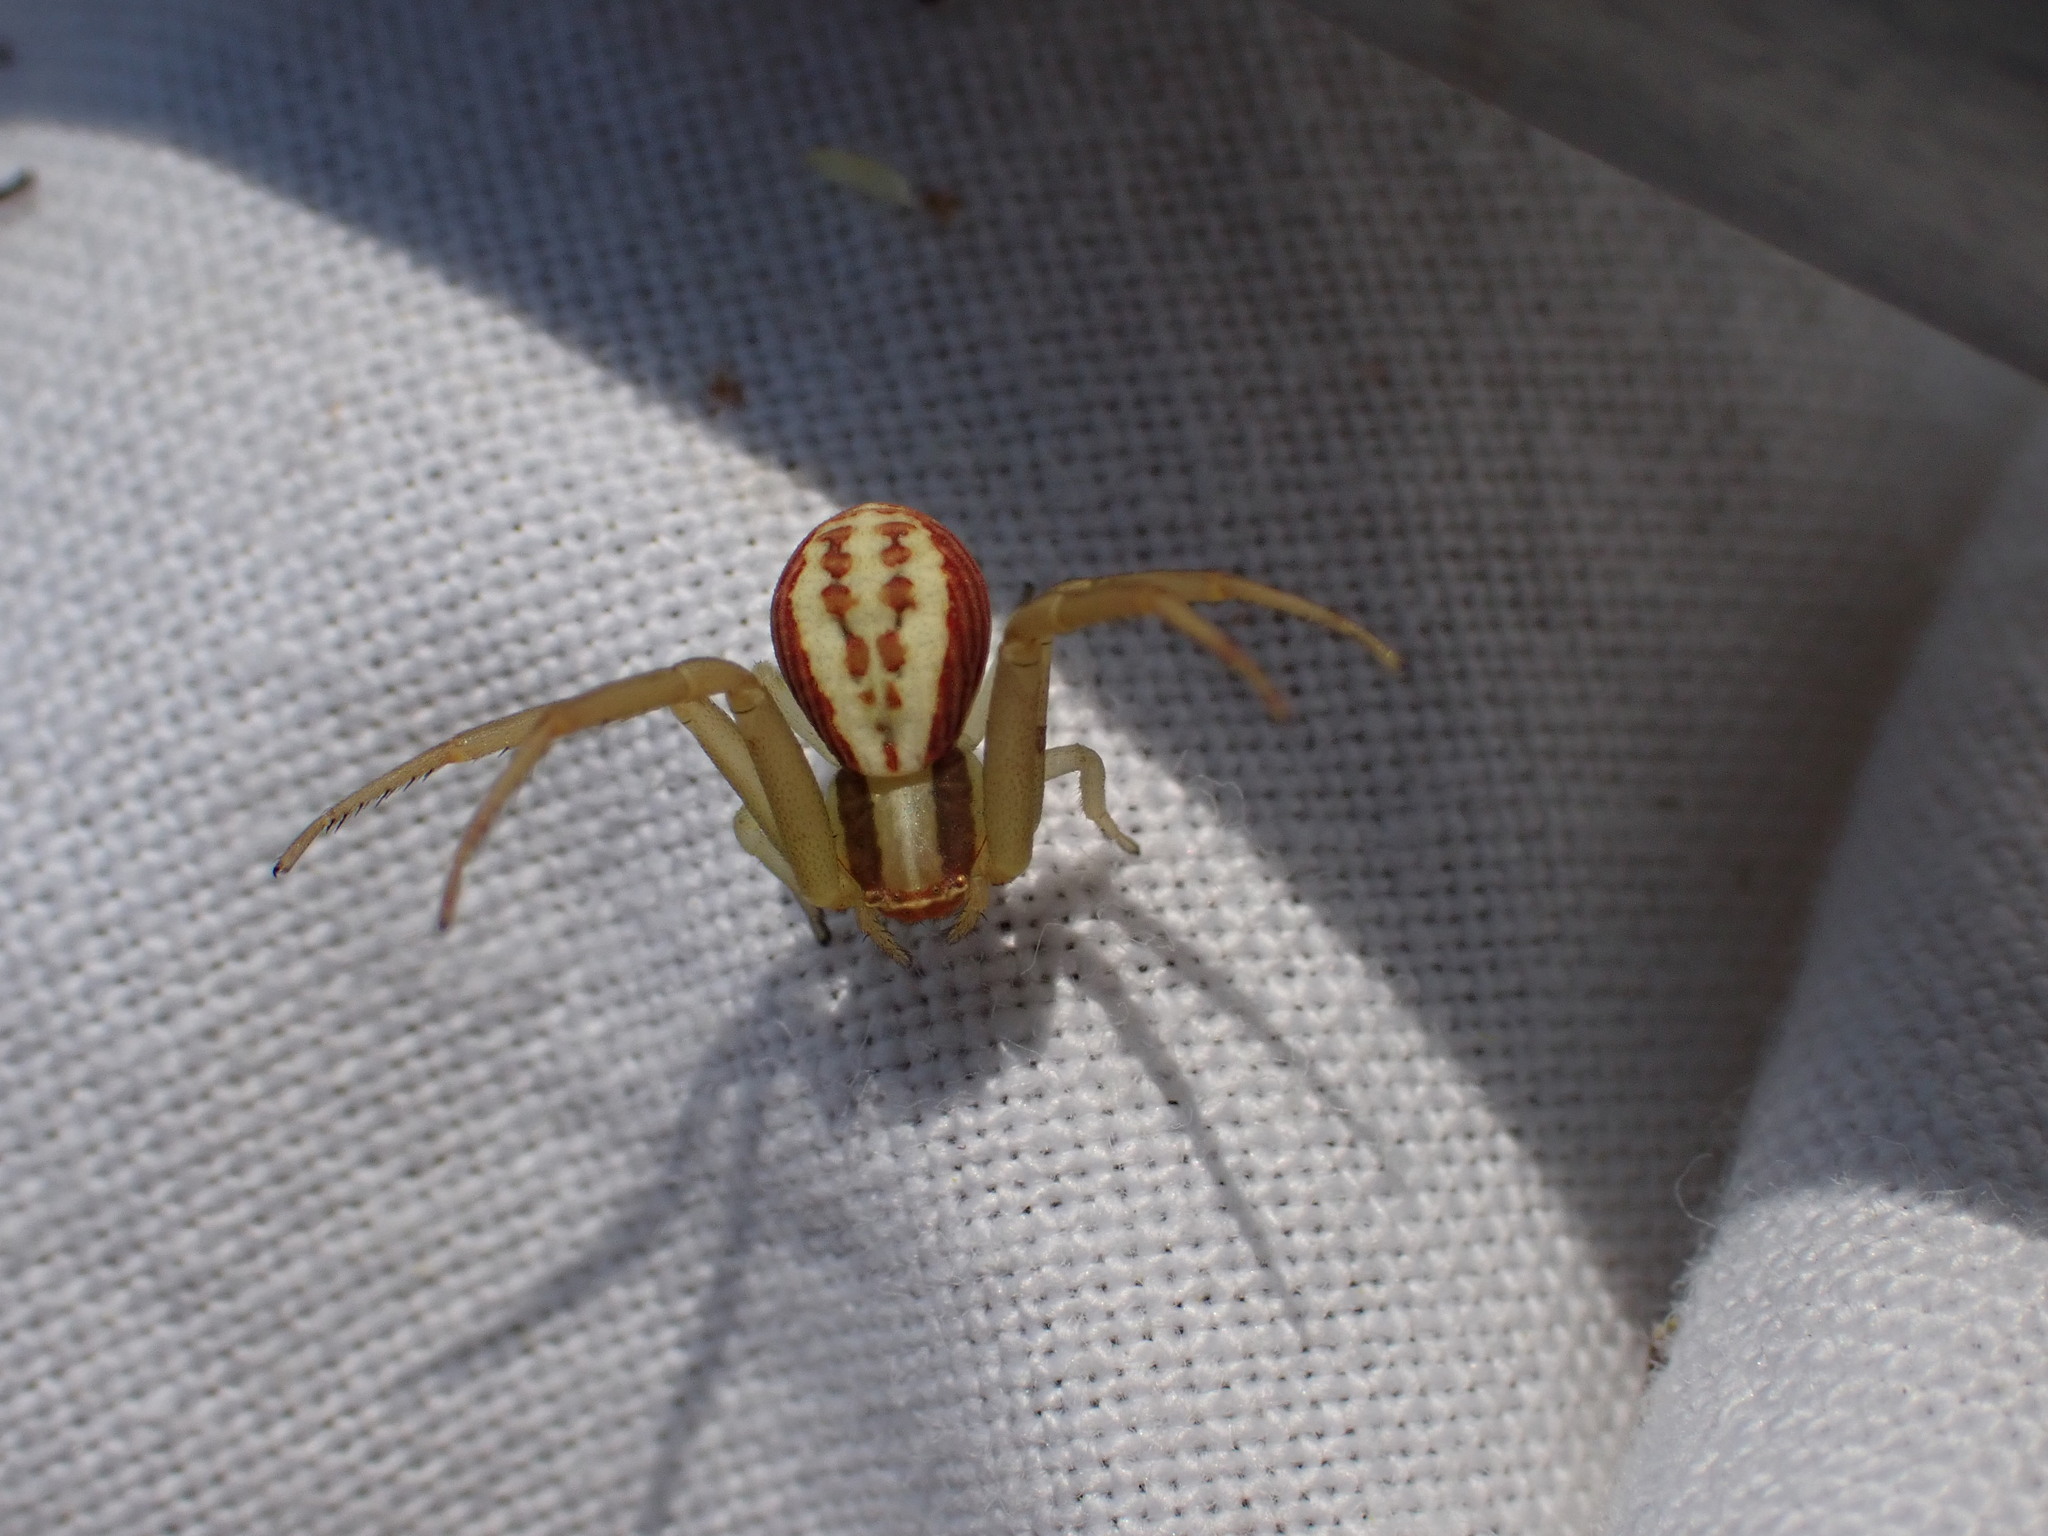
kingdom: Animalia
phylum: Arthropoda
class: Arachnida
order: Araneae
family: Thomisidae
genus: Runcinia
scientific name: Runcinia grammica
